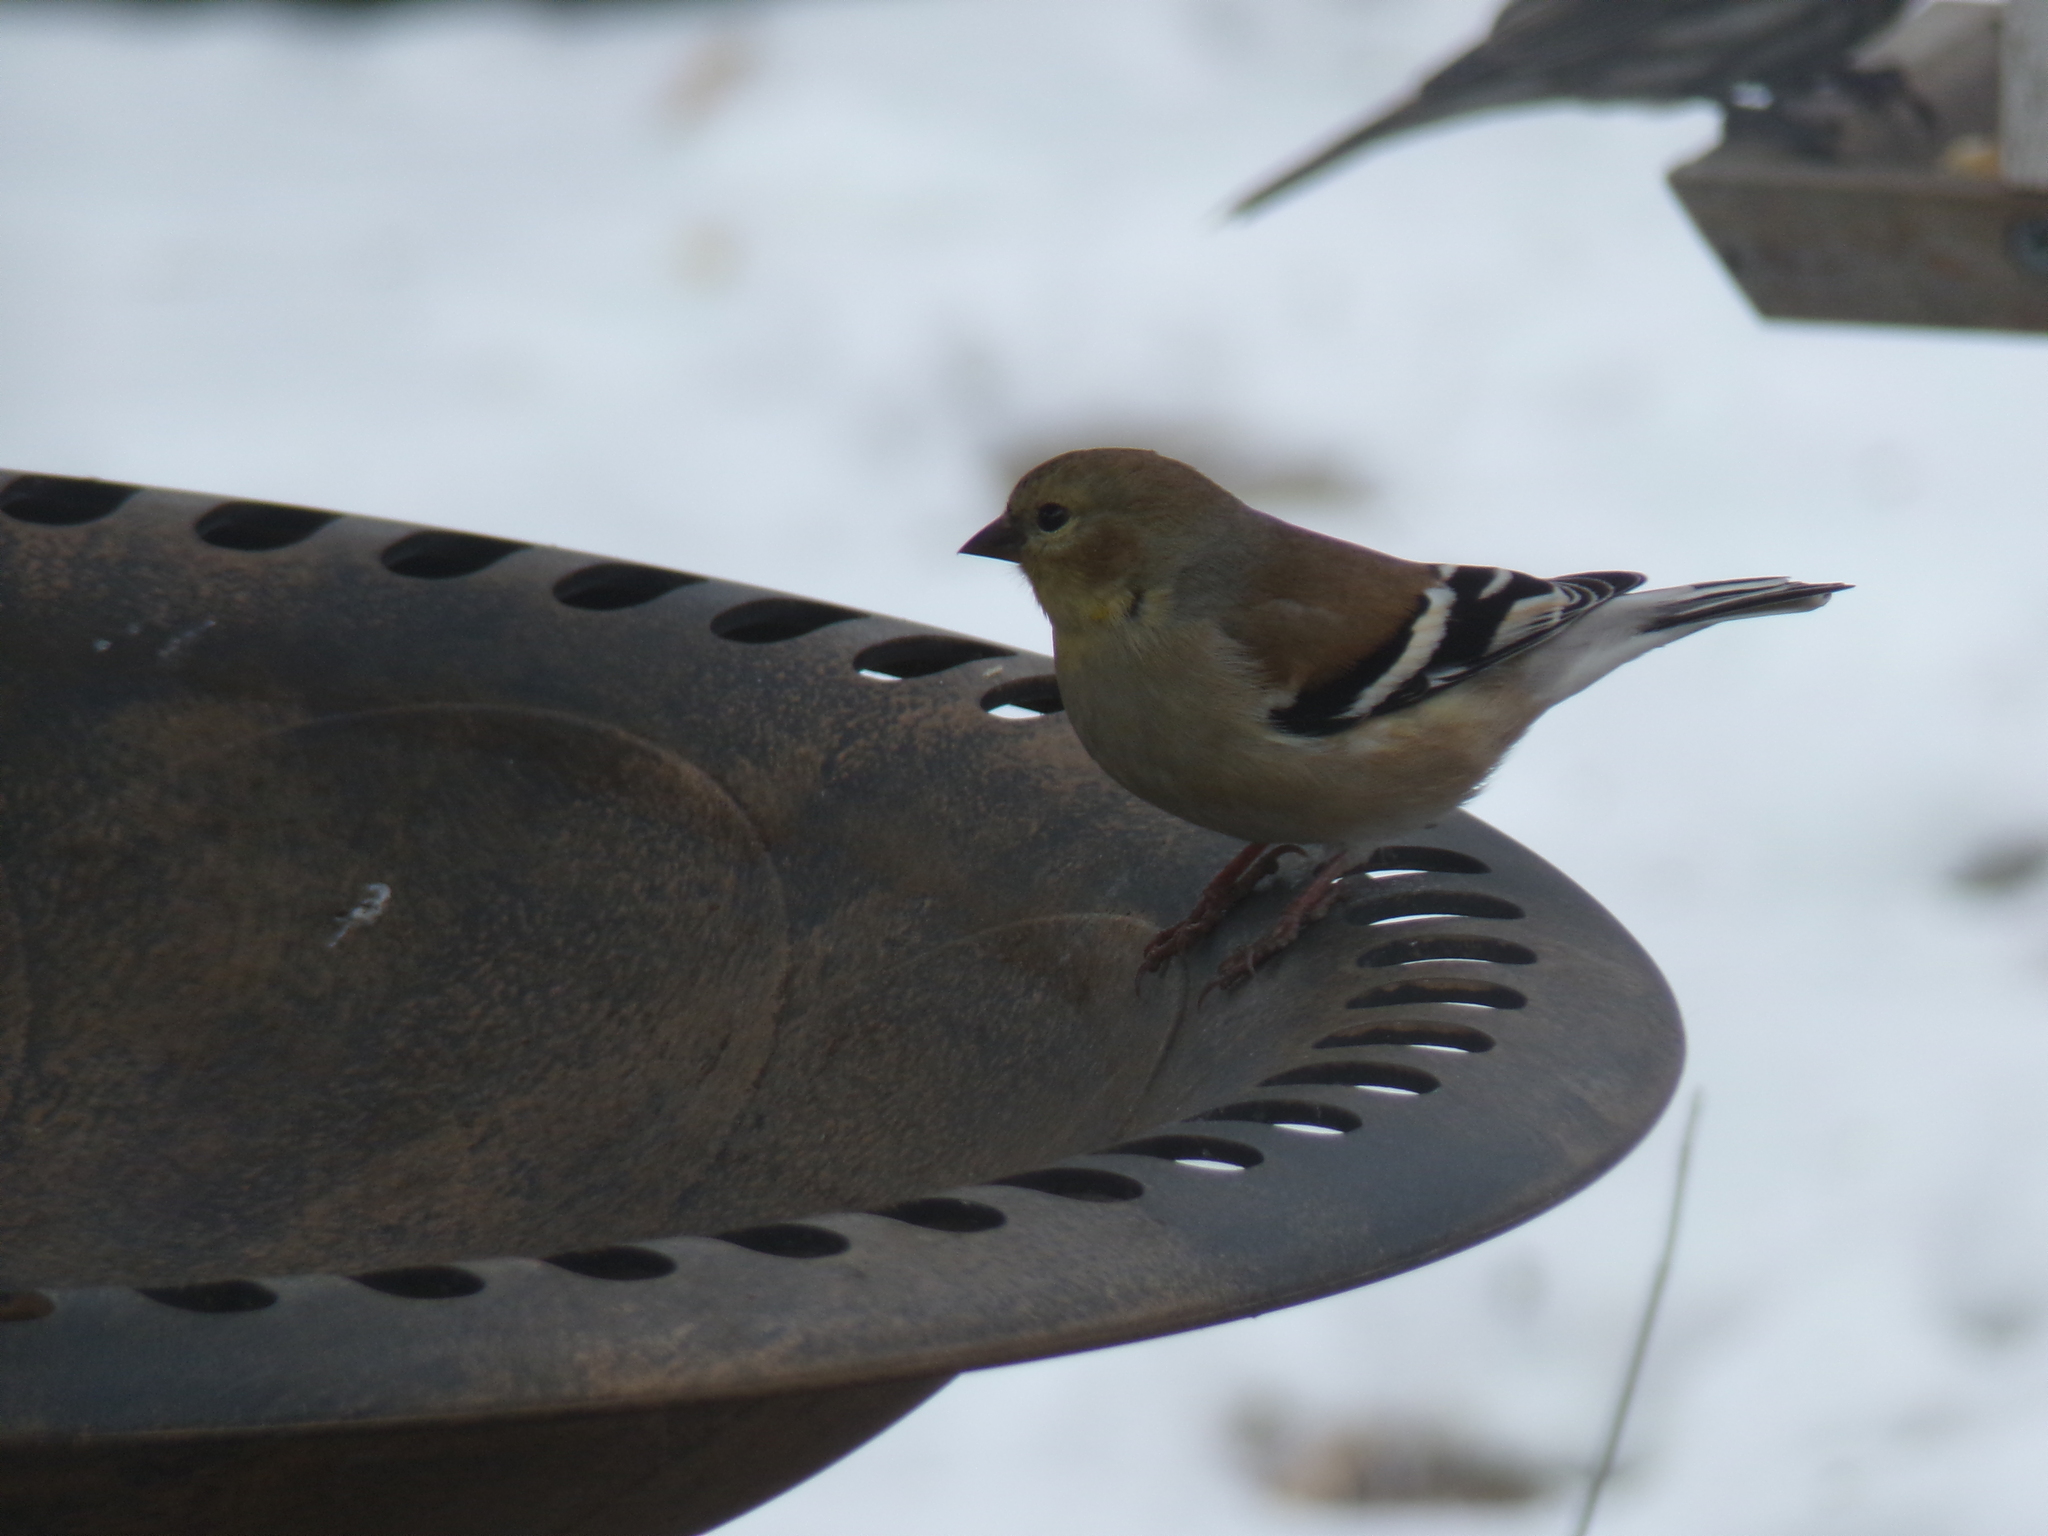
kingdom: Animalia
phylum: Chordata
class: Aves
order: Passeriformes
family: Fringillidae
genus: Spinus
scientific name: Spinus tristis
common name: American goldfinch
